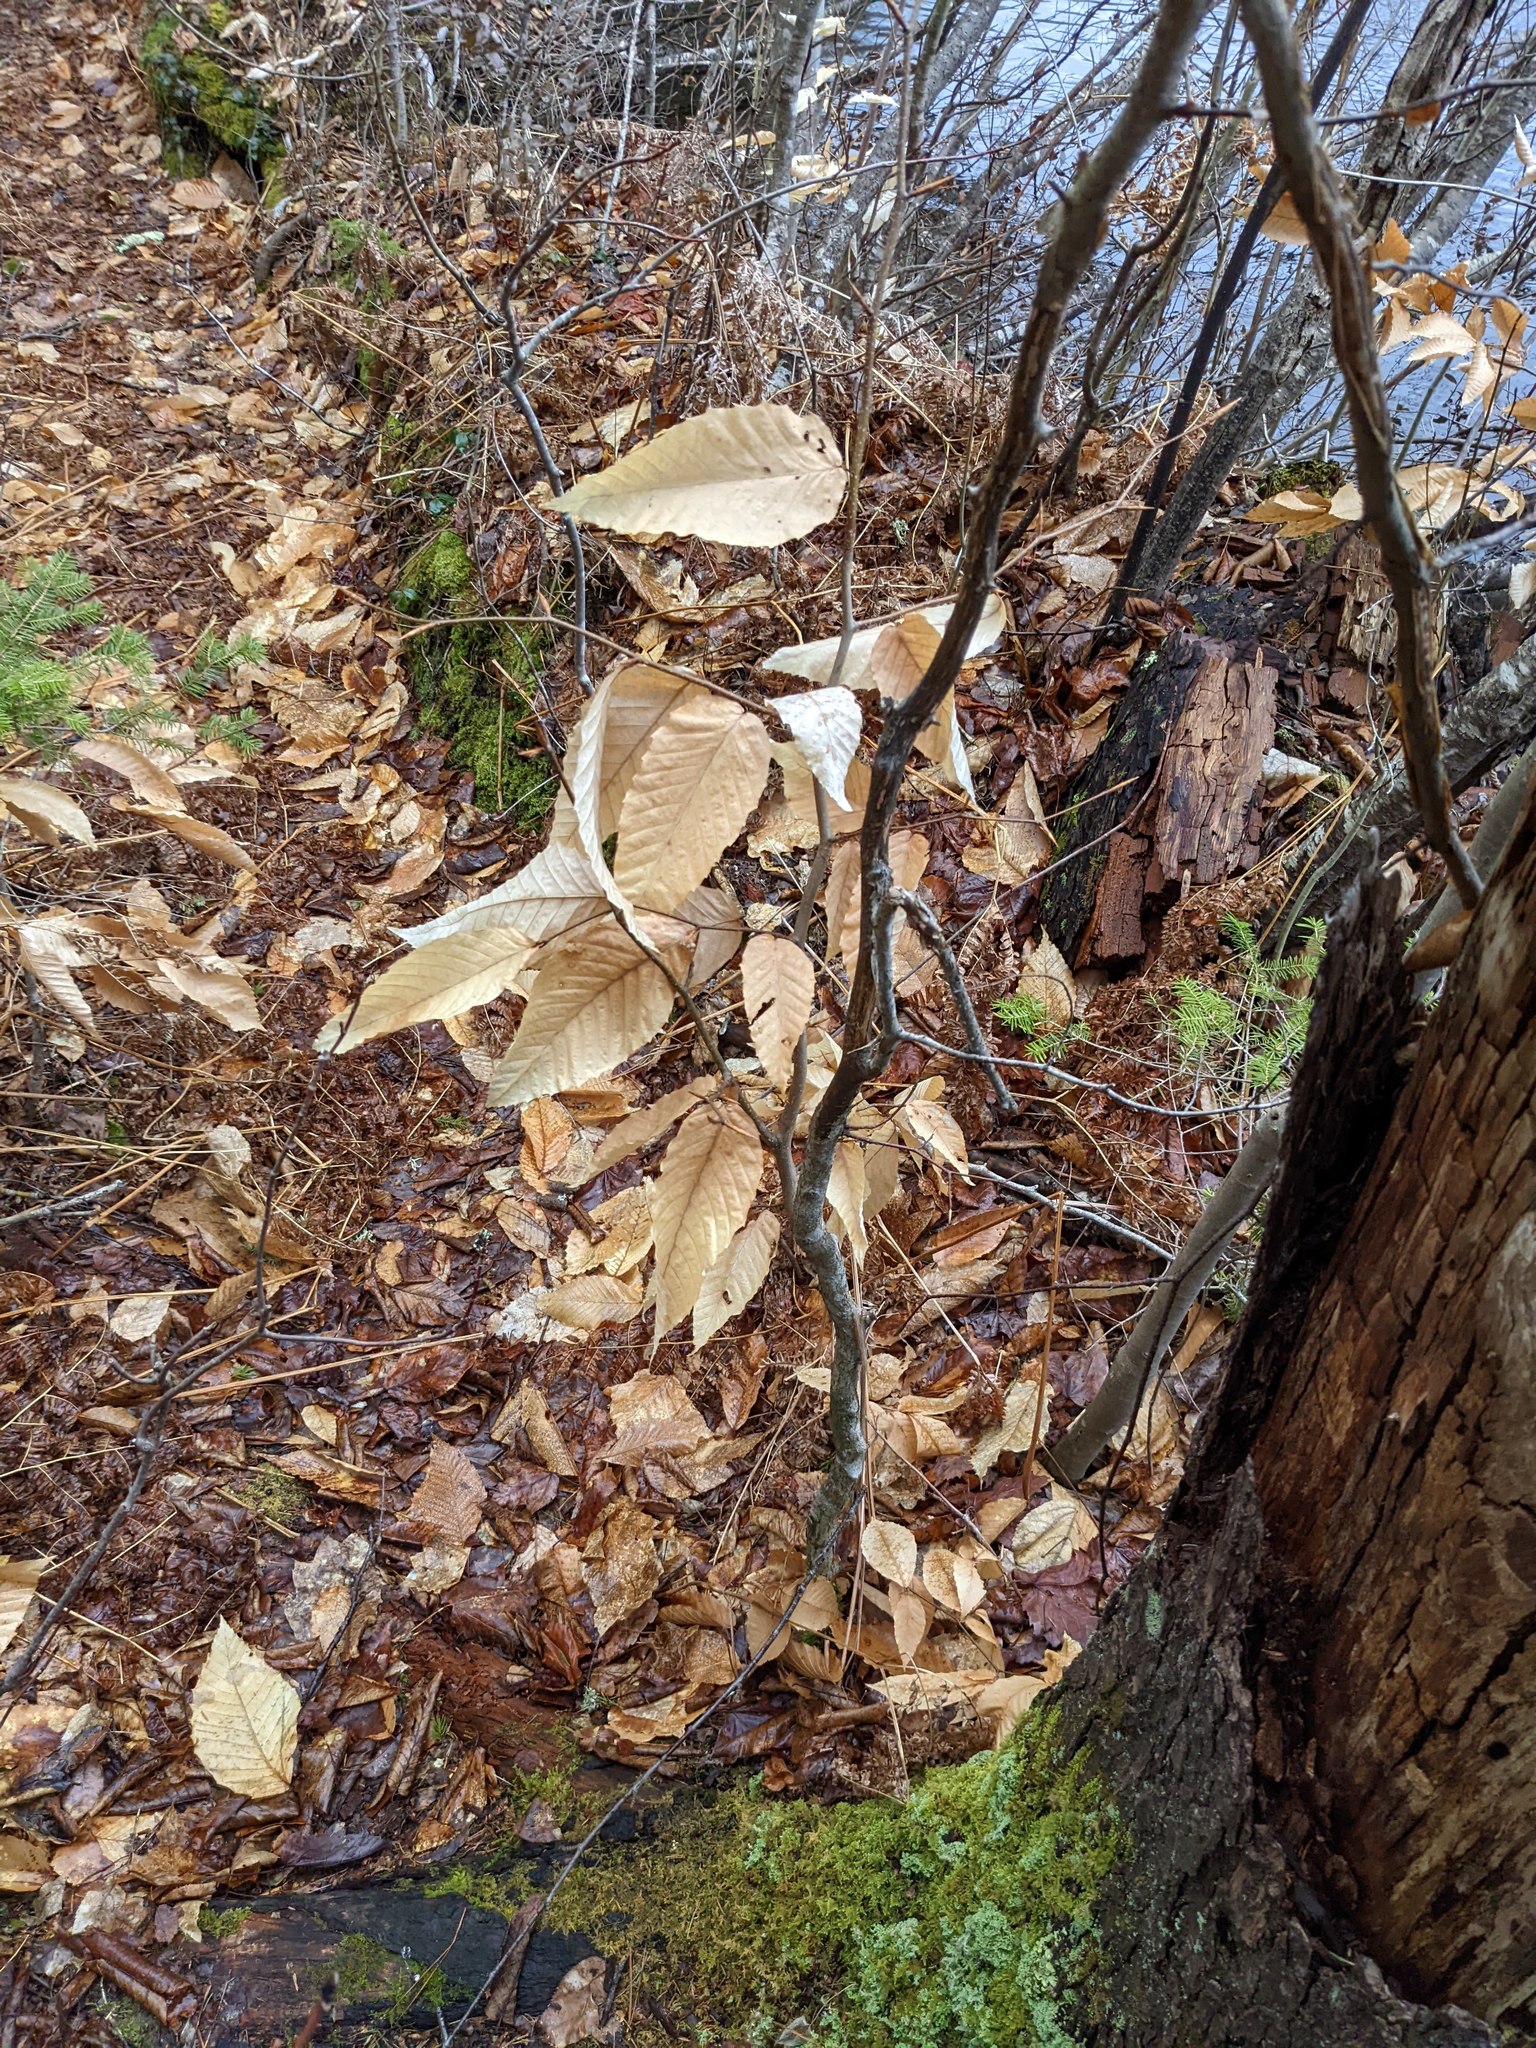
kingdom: Plantae
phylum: Tracheophyta
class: Magnoliopsida
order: Fagales
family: Fagaceae
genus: Fagus
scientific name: Fagus grandifolia
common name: American beech
